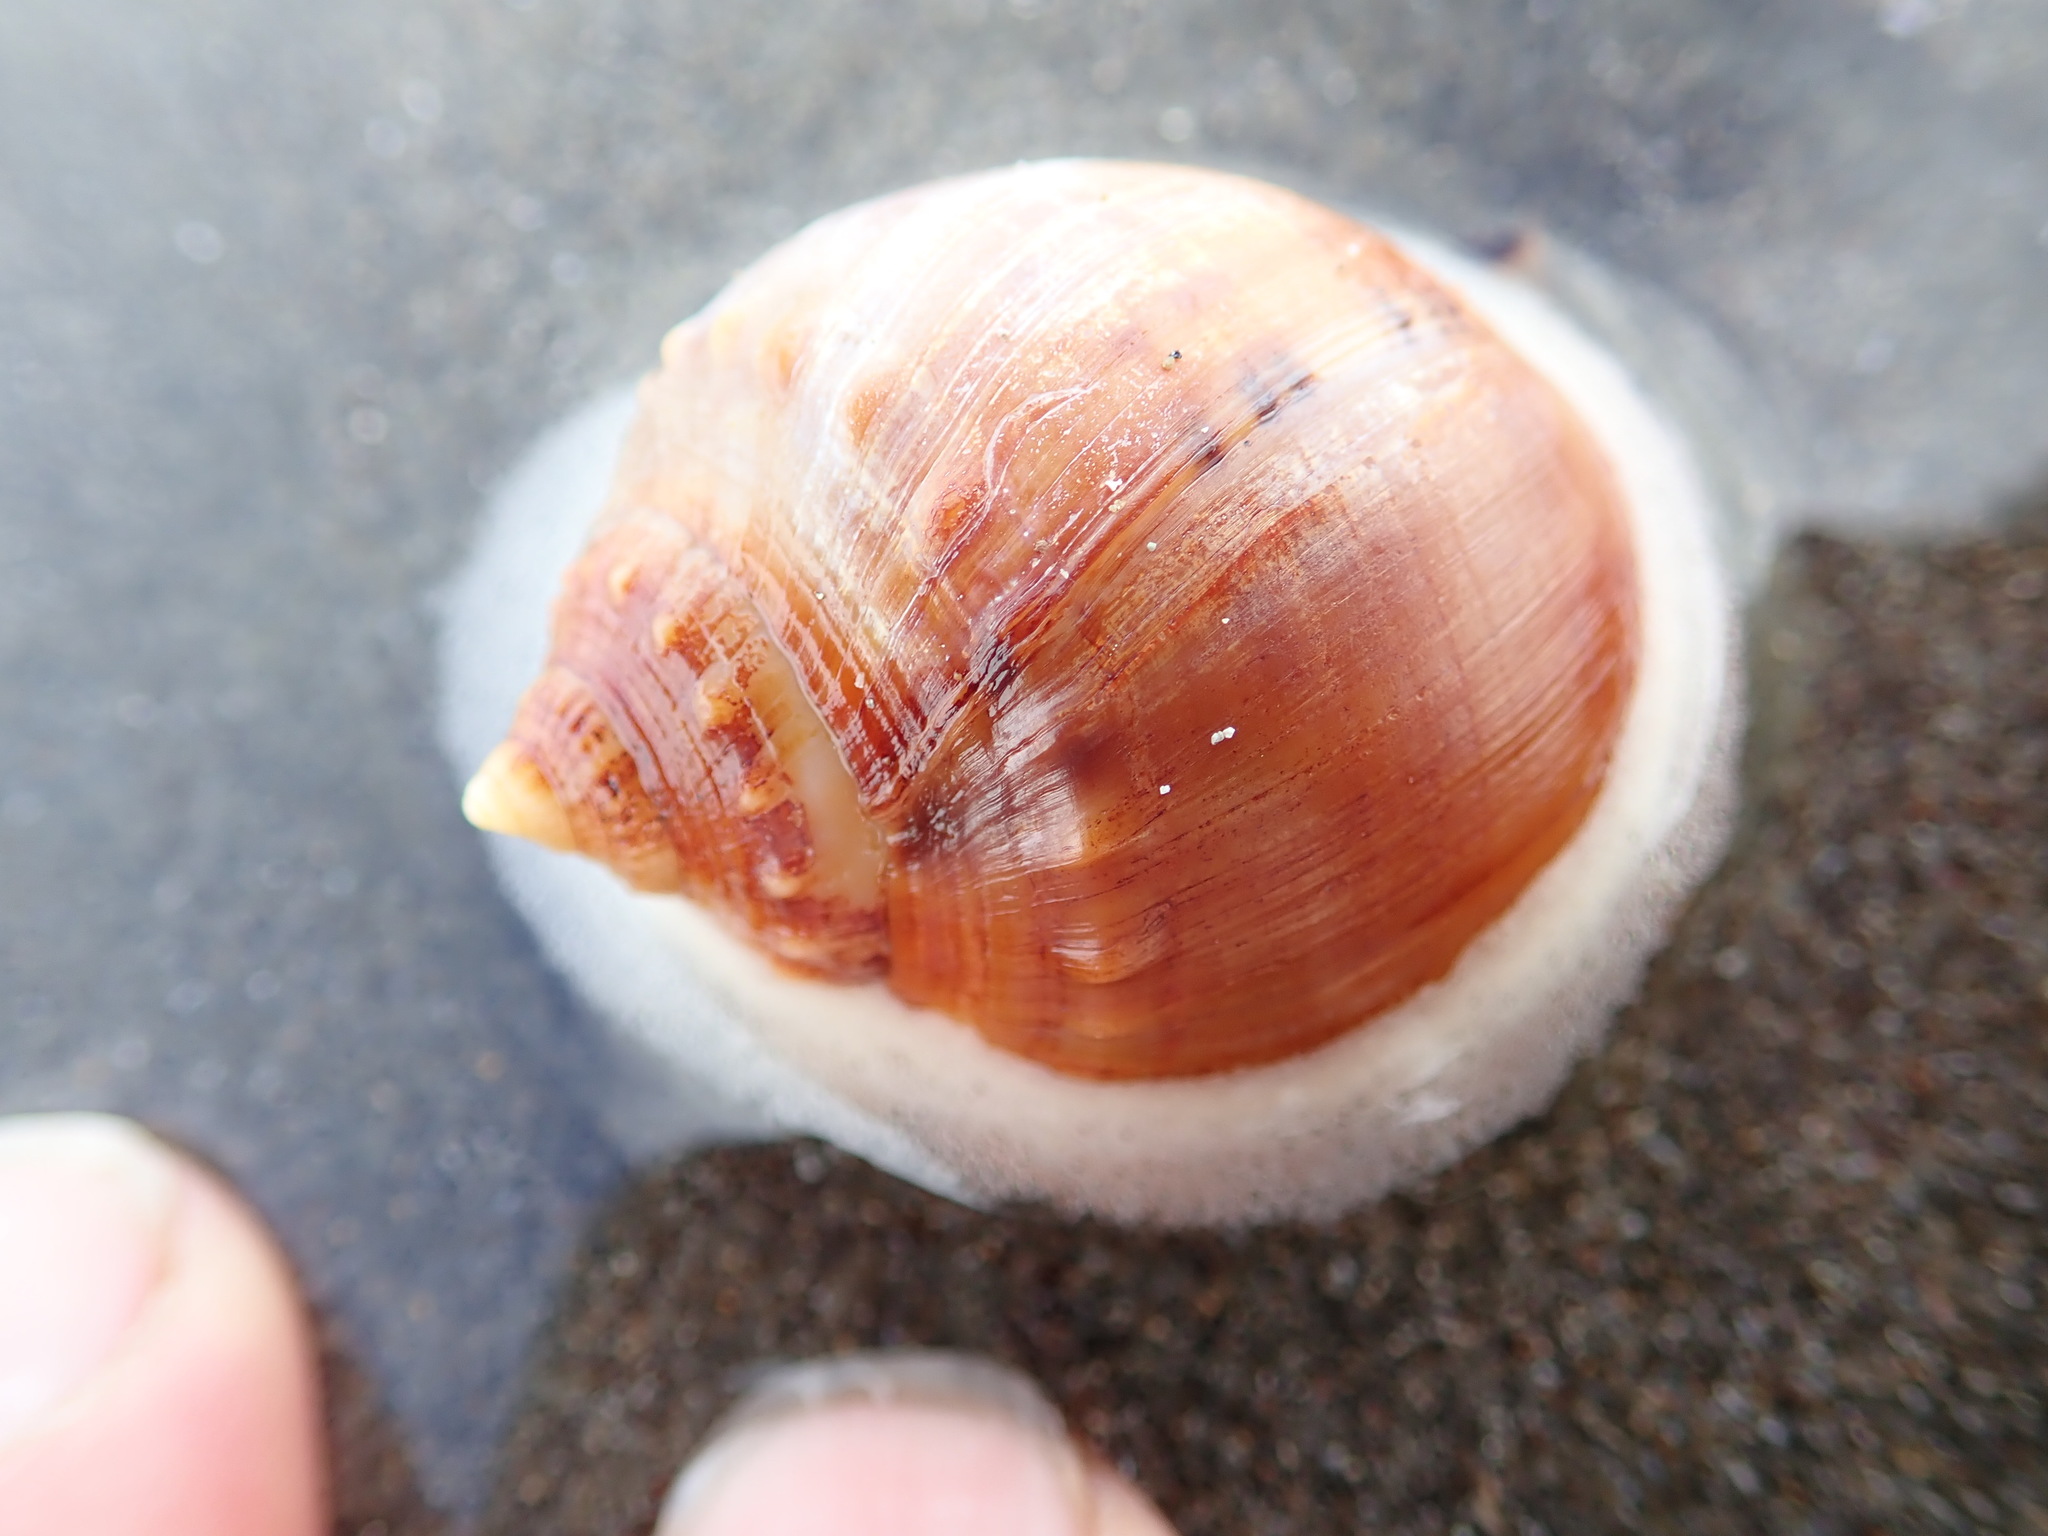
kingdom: Animalia
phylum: Mollusca
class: Gastropoda
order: Littorinimorpha
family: Cassidae
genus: Semicassis
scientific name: Semicassis pyrum
